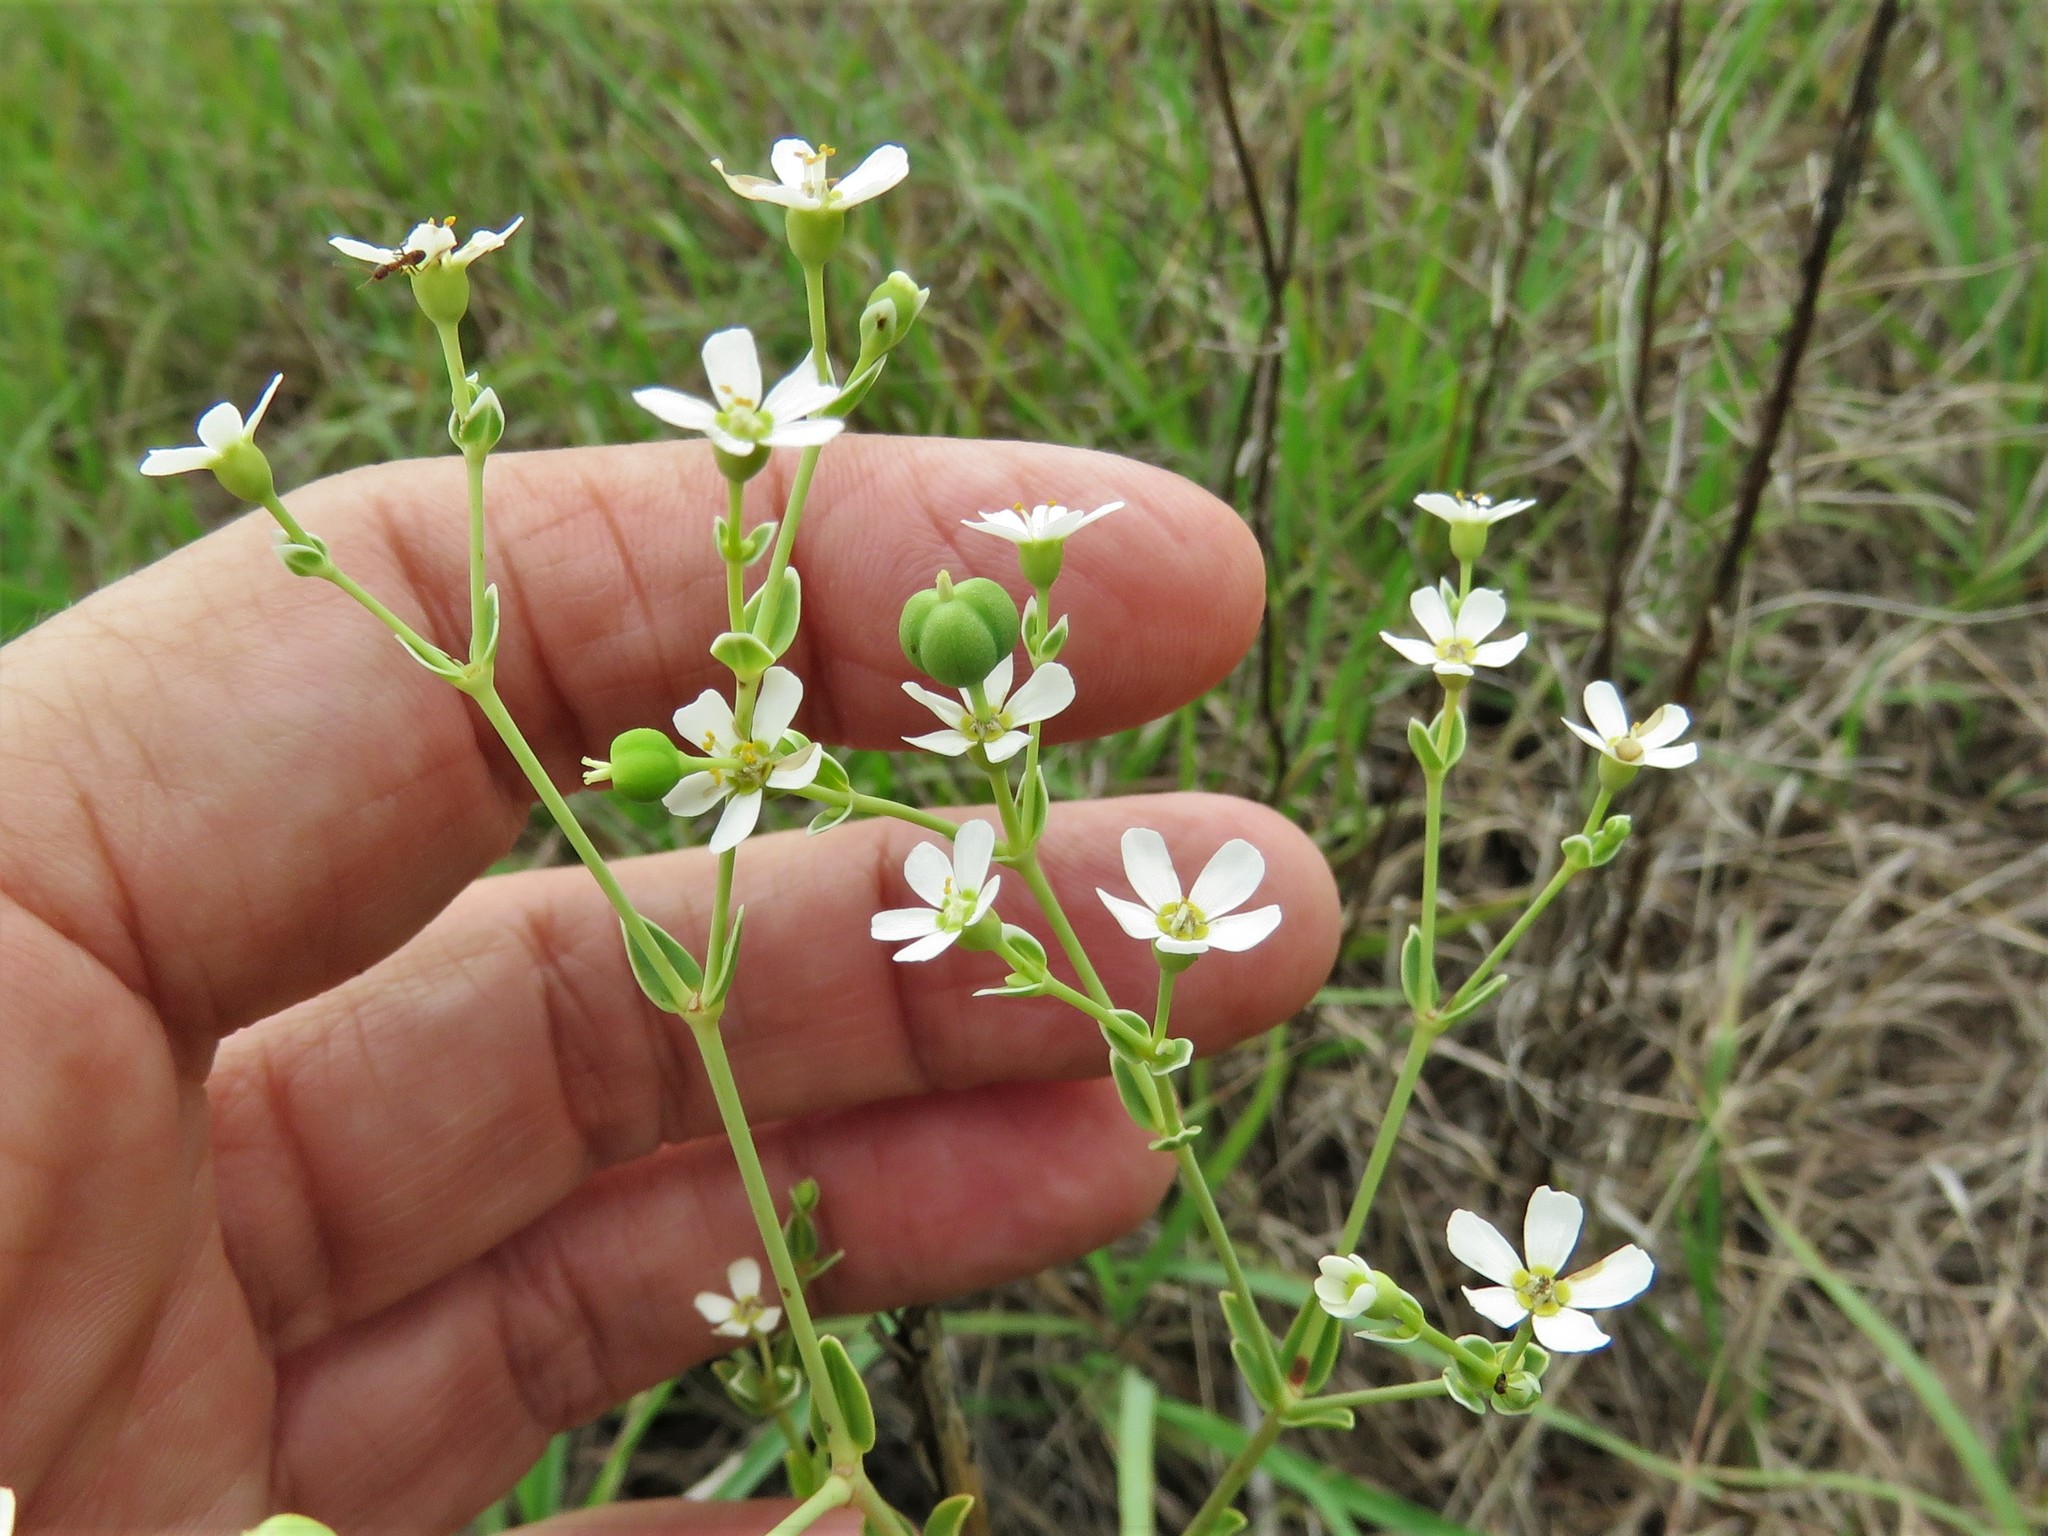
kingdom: Plantae
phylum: Tracheophyta
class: Magnoliopsida
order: Malpighiales
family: Euphorbiaceae
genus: Euphorbia
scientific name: Euphorbia corollata
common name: Flowering spurge
